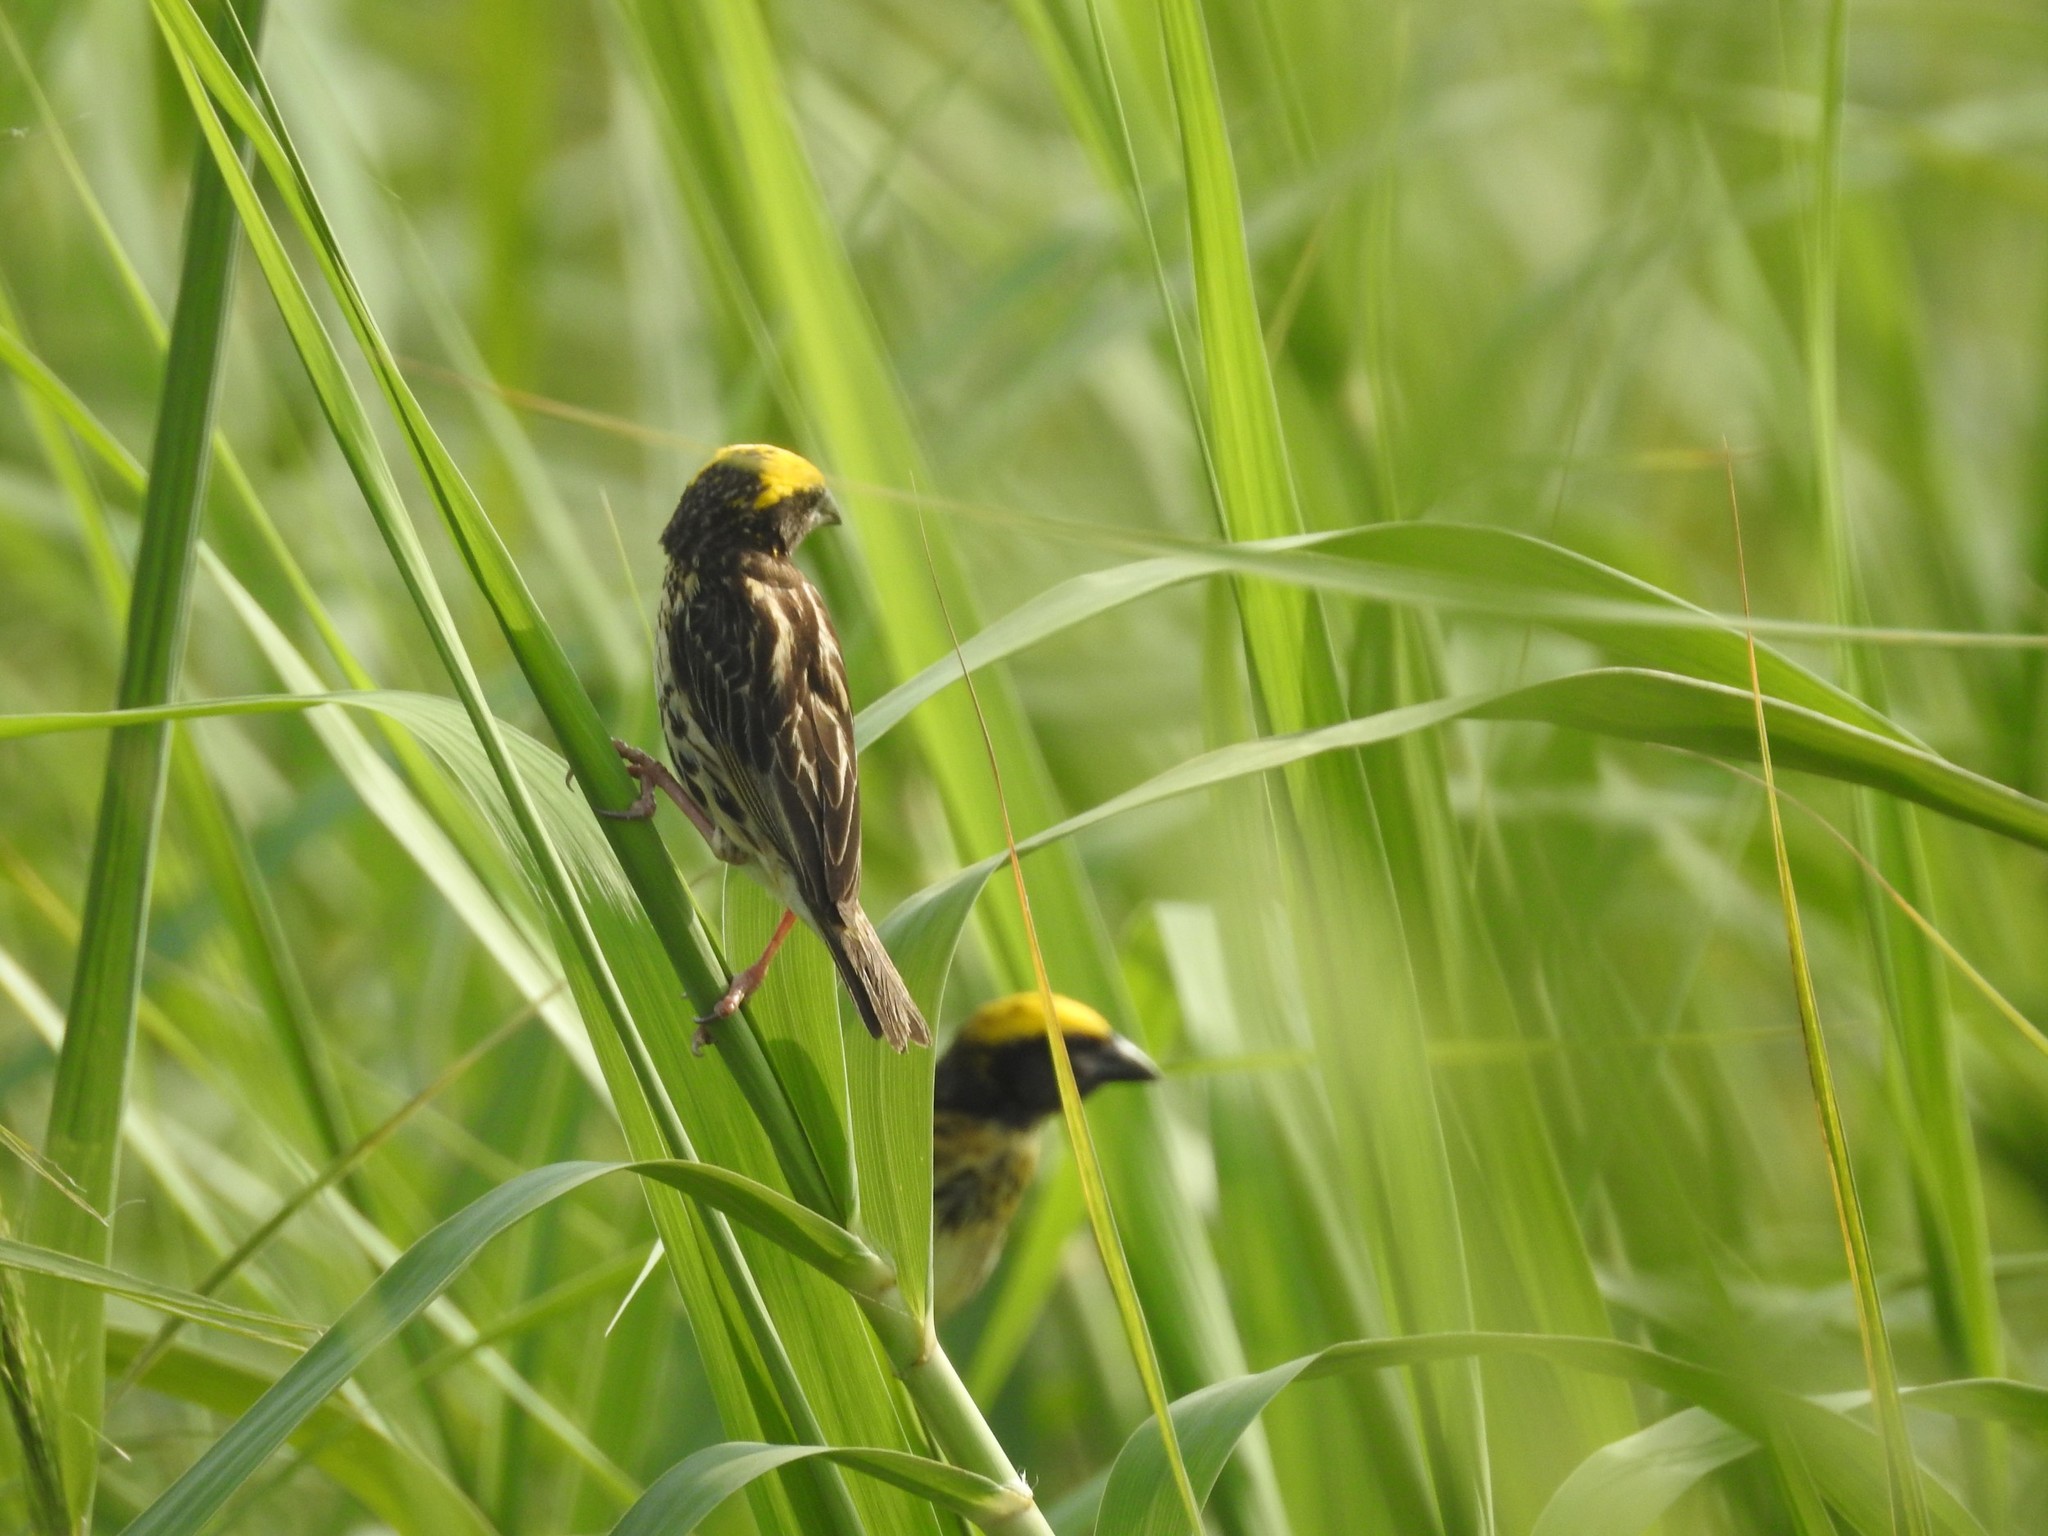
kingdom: Animalia
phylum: Chordata
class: Aves
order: Passeriformes
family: Ploceidae
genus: Ploceus
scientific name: Ploceus philippinus
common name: Baya weaver
